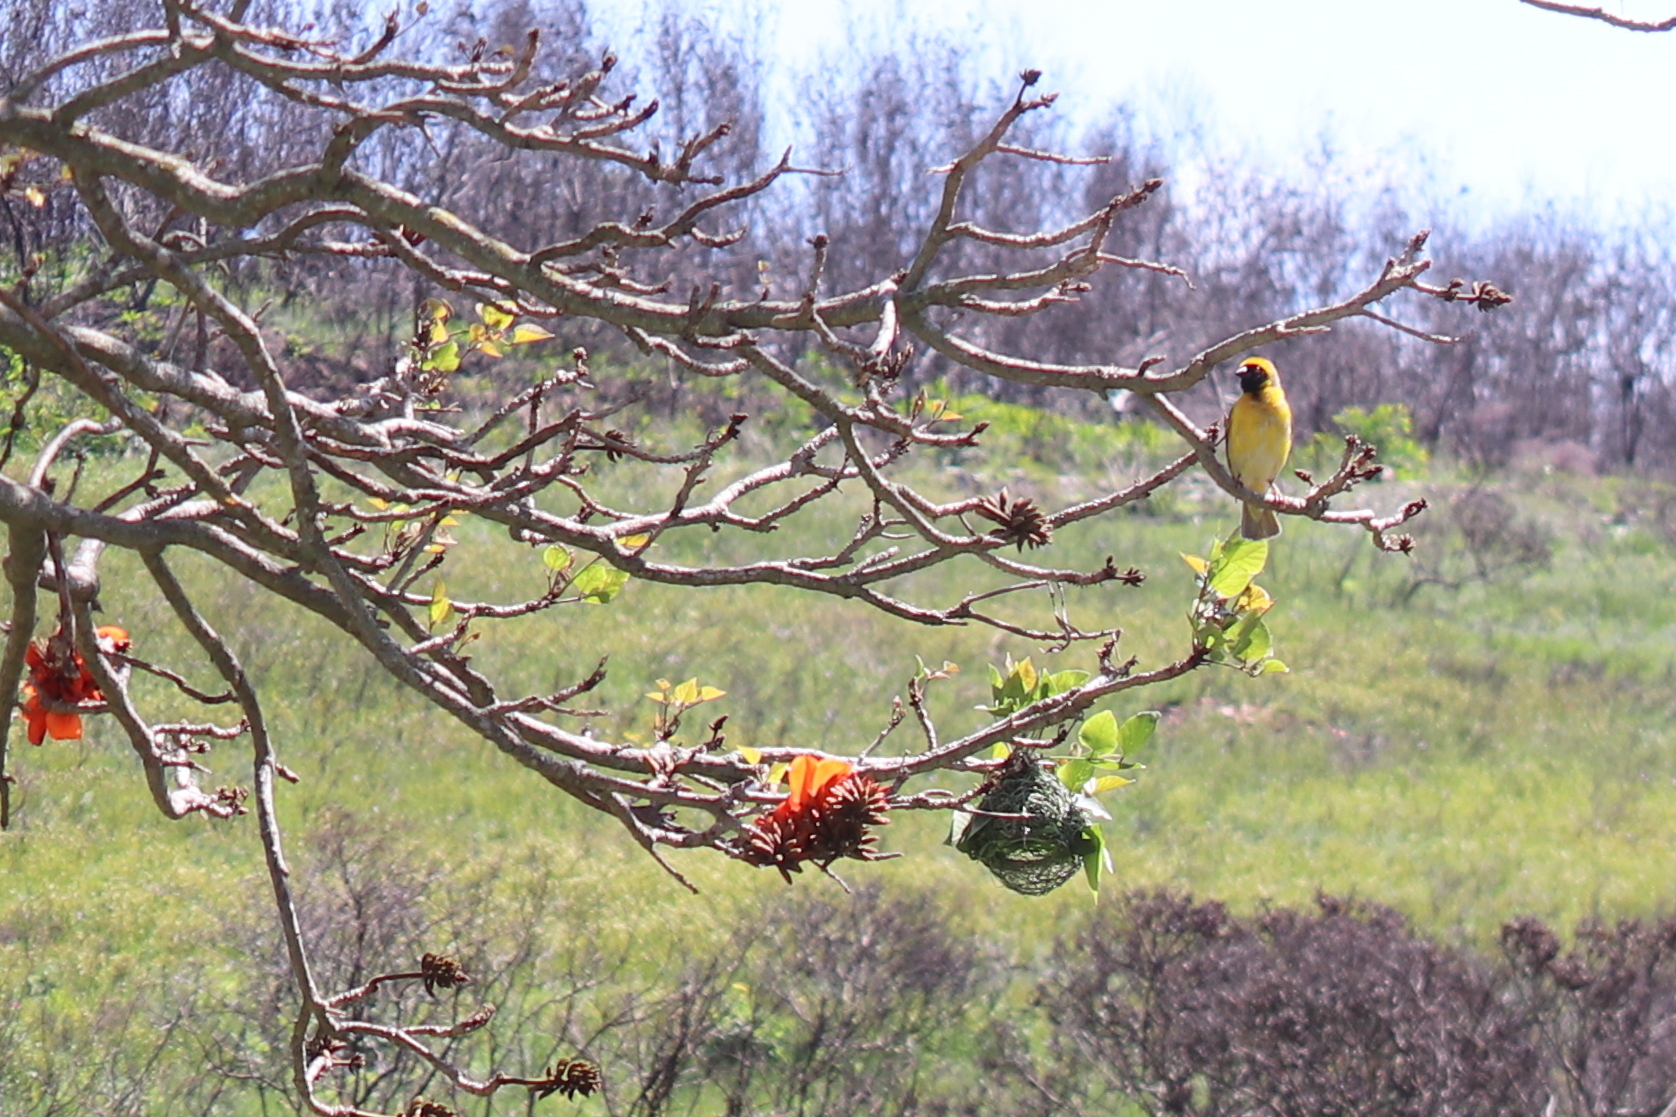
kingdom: Animalia
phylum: Chordata
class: Aves
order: Passeriformes
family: Ploceidae
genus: Ploceus
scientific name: Ploceus velatus
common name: Southern masked weaver
